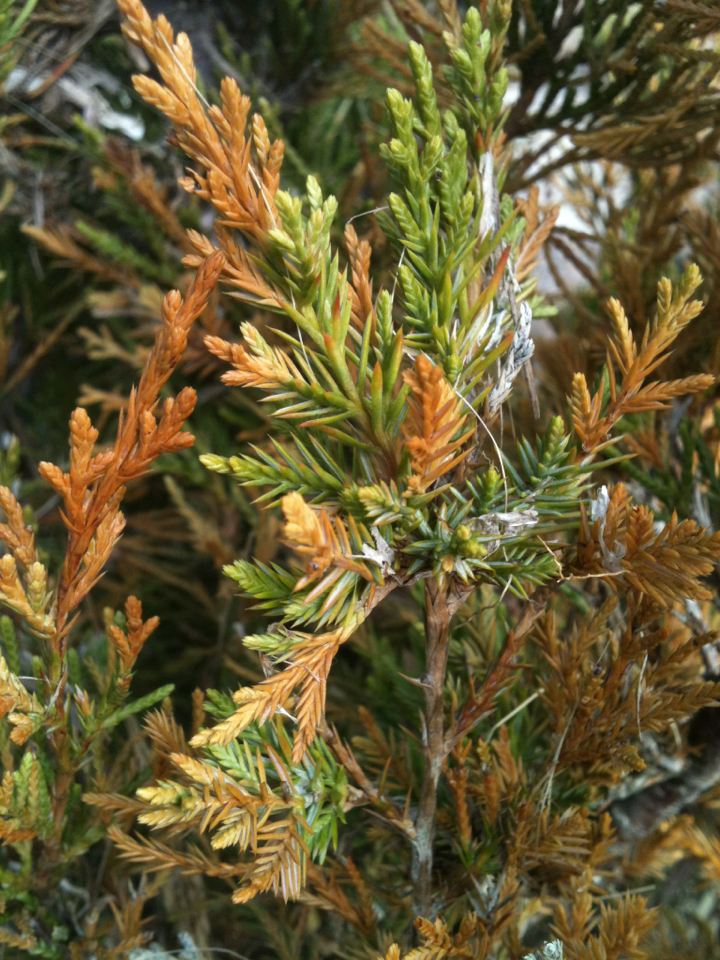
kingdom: Plantae
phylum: Tracheophyta
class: Pinopsida
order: Pinales
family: Cupressaceae
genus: Juniperus
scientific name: Juniperus virginiana
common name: Red juniper
